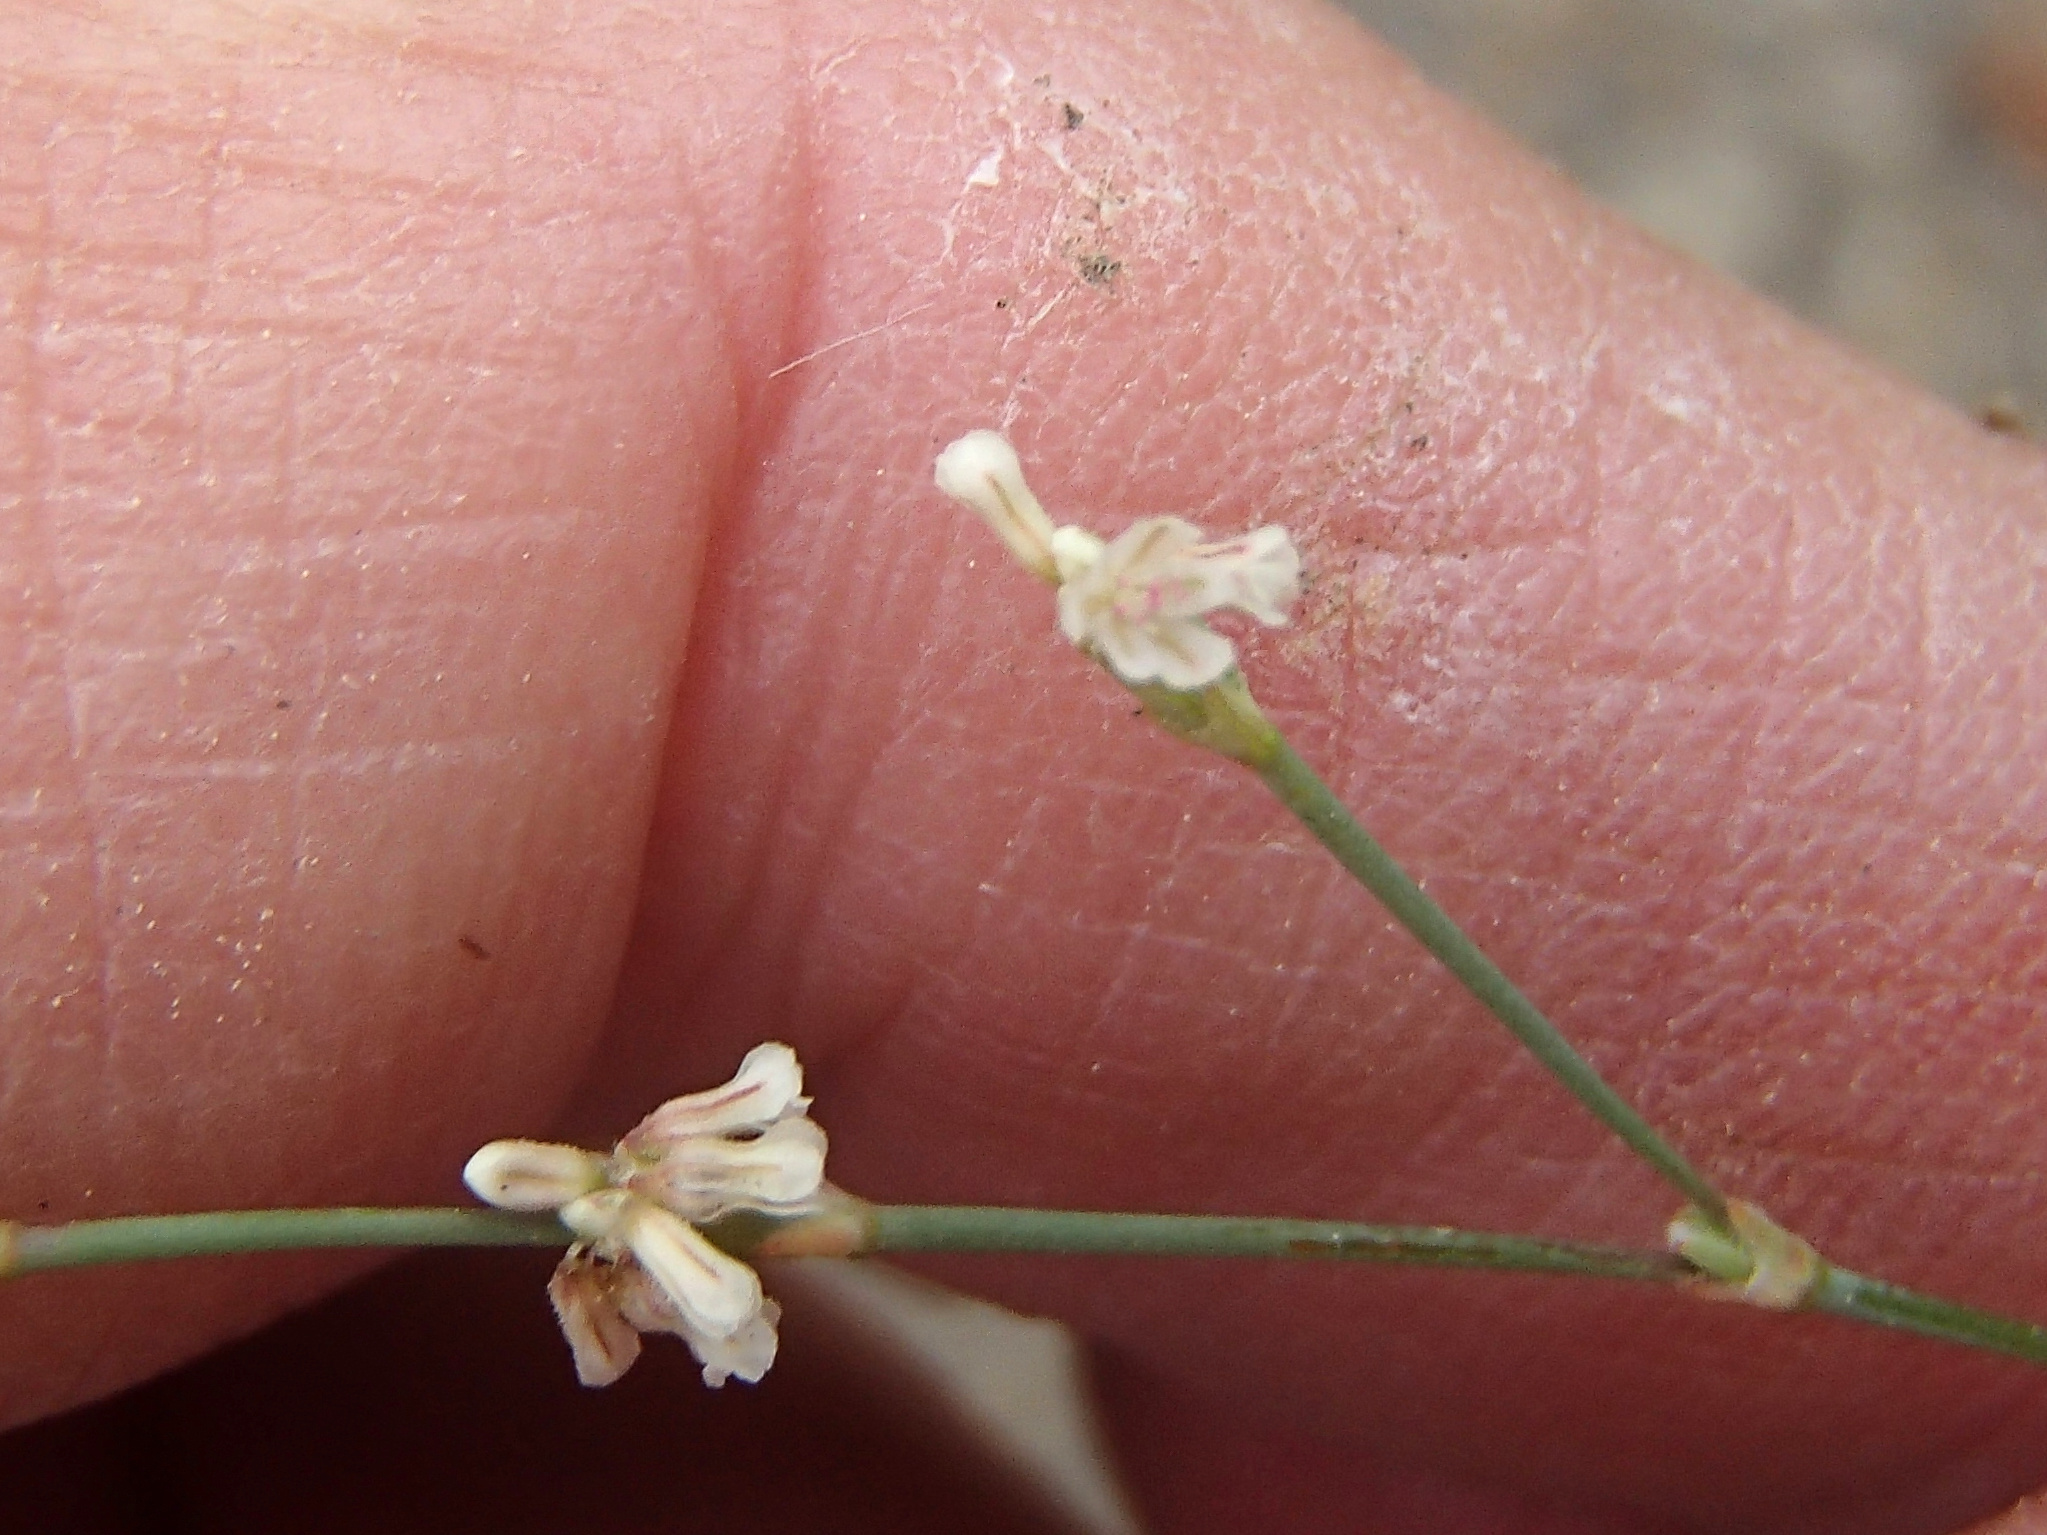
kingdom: Plantae
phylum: Tracheophyta
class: Magnoliopsida
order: Caryophyllales
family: Polygonaceae
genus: Eriogonum
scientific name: Eriogonum baileyi
